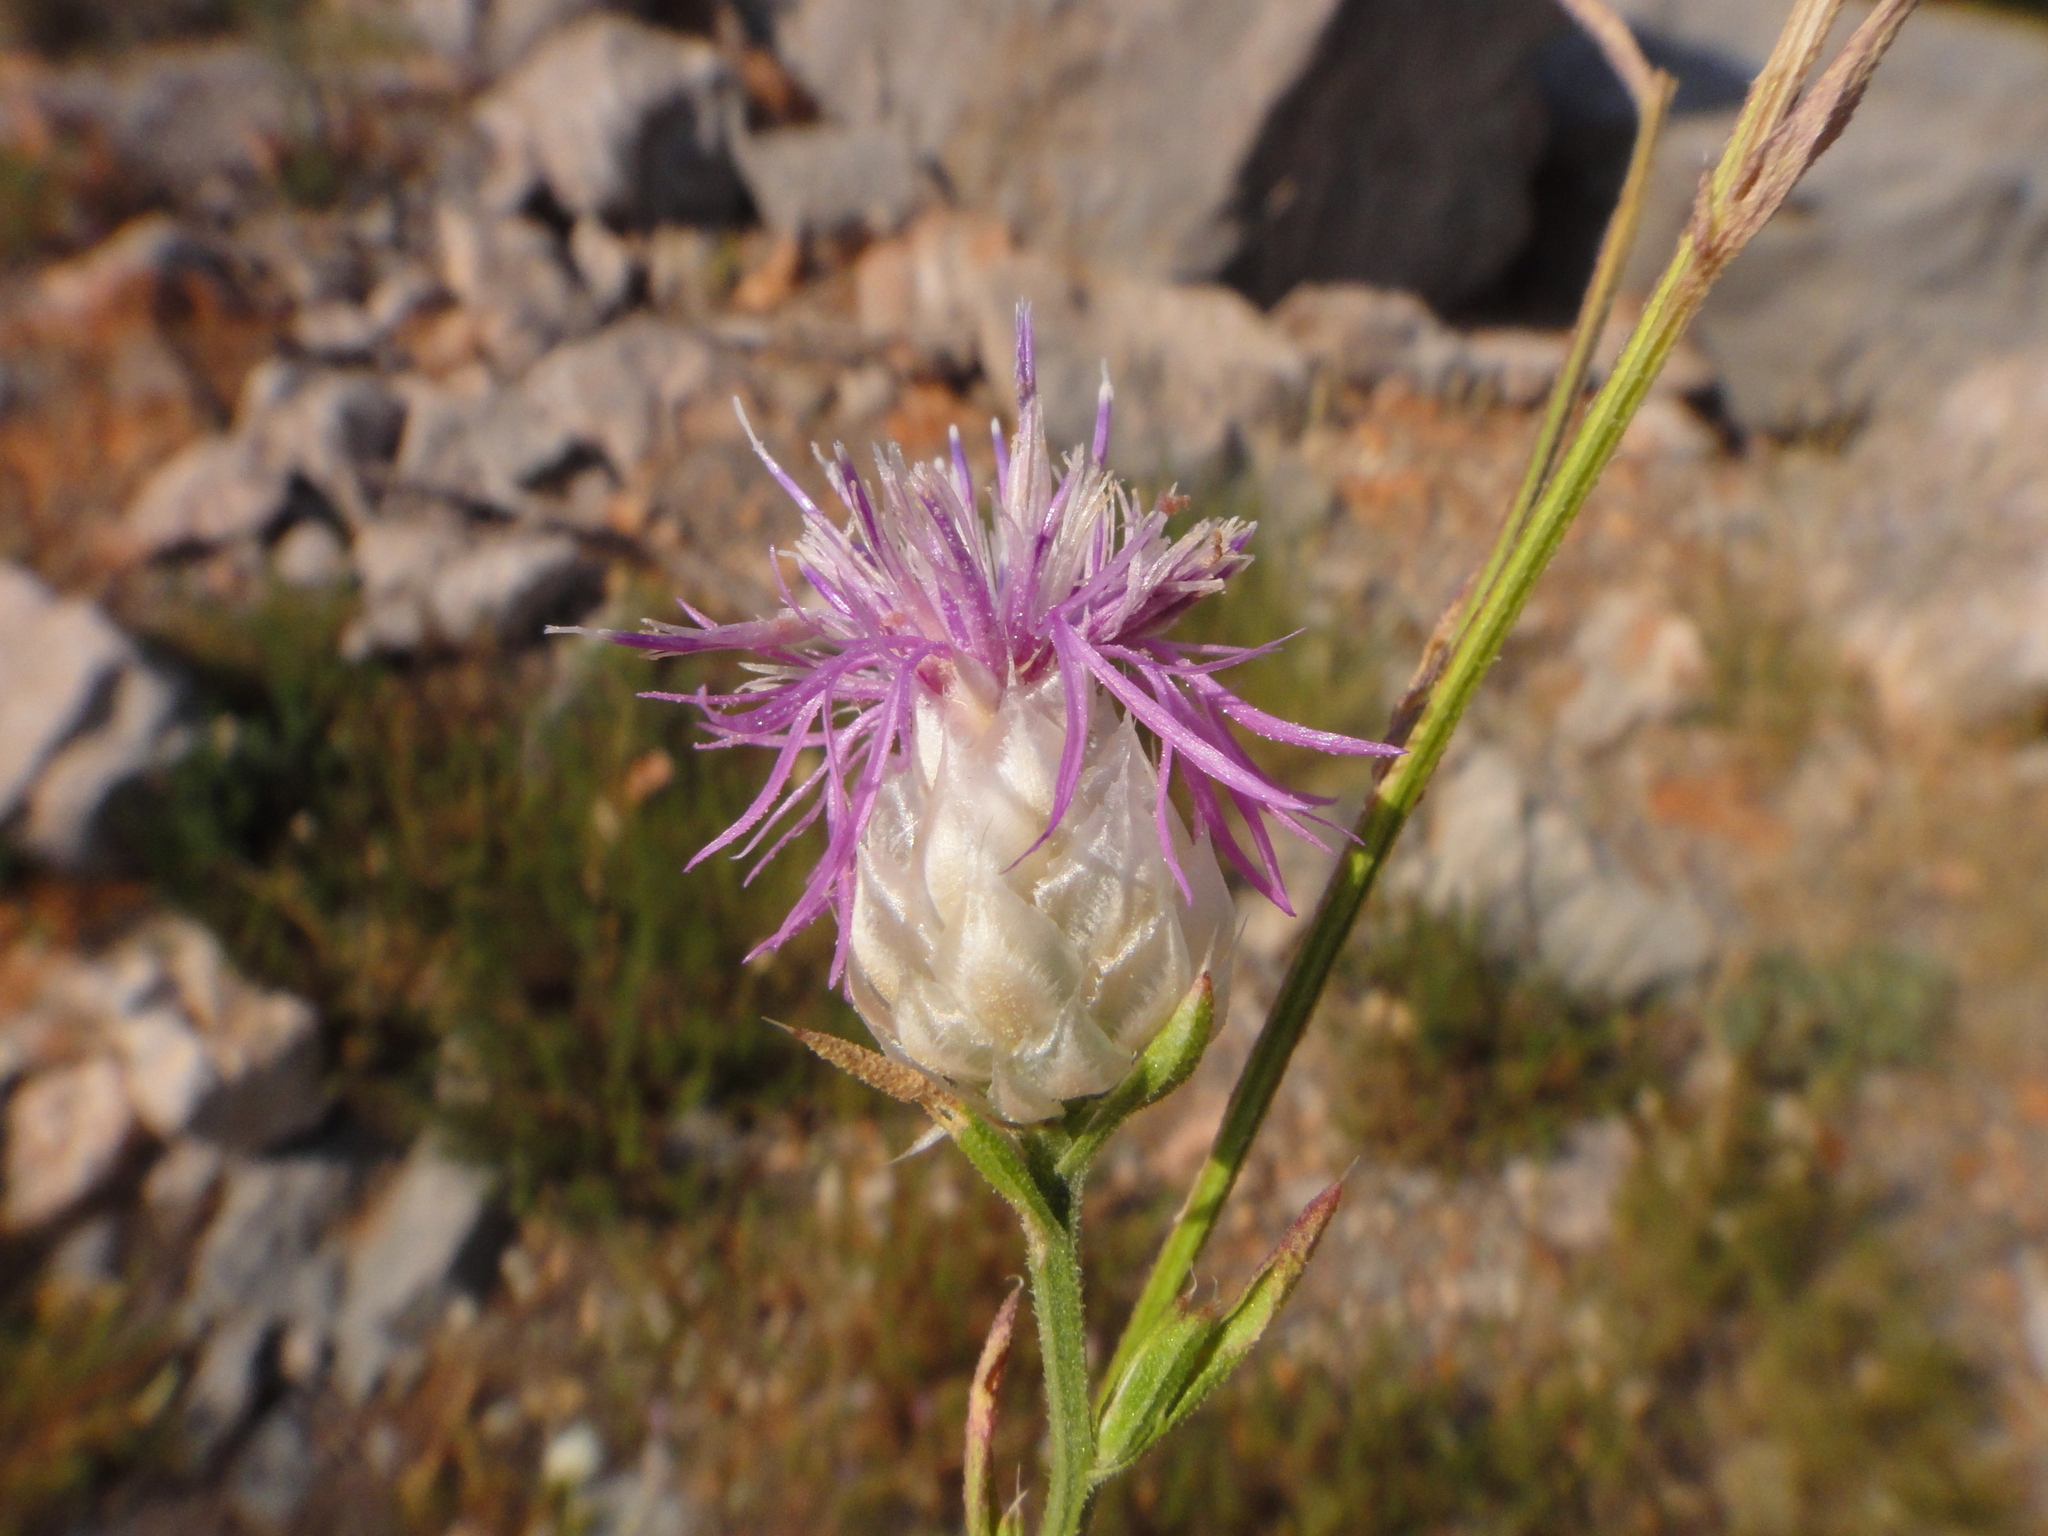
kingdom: Plantae
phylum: Tracheophyta
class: Magnoliopsida
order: Asterales
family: Asteraceae
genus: Centaurea
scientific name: Centaurea deusta
